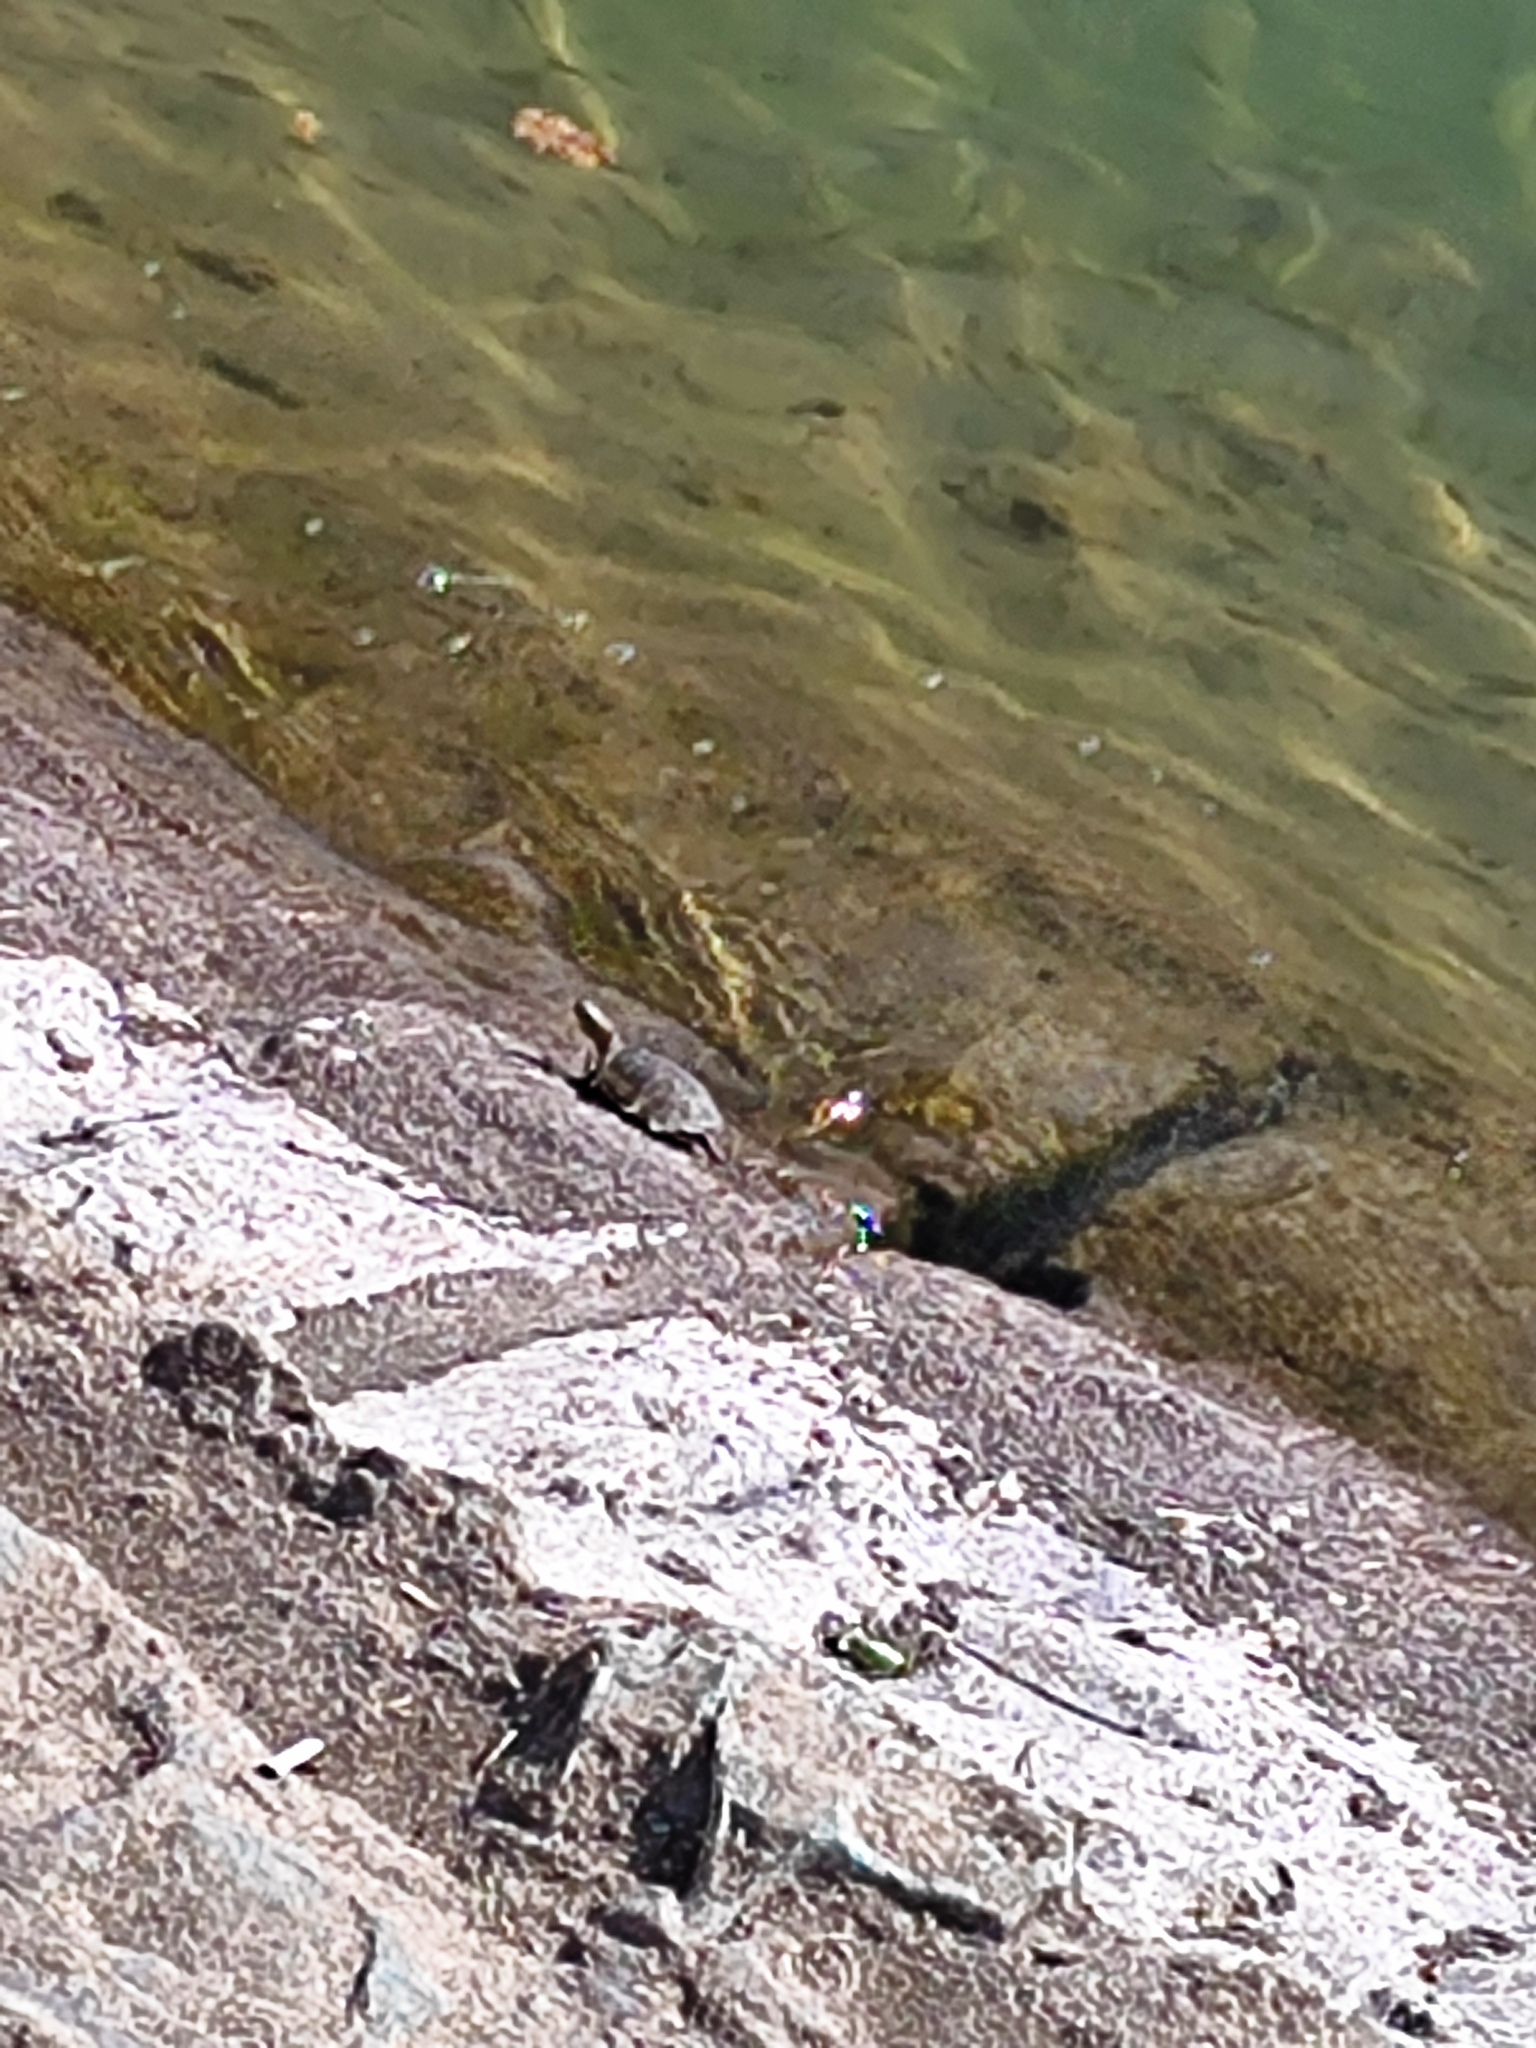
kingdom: Animalia
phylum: Chordata
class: Testudines
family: Emydidae
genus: Trachemys
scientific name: Trachemys scripta
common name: Slider
